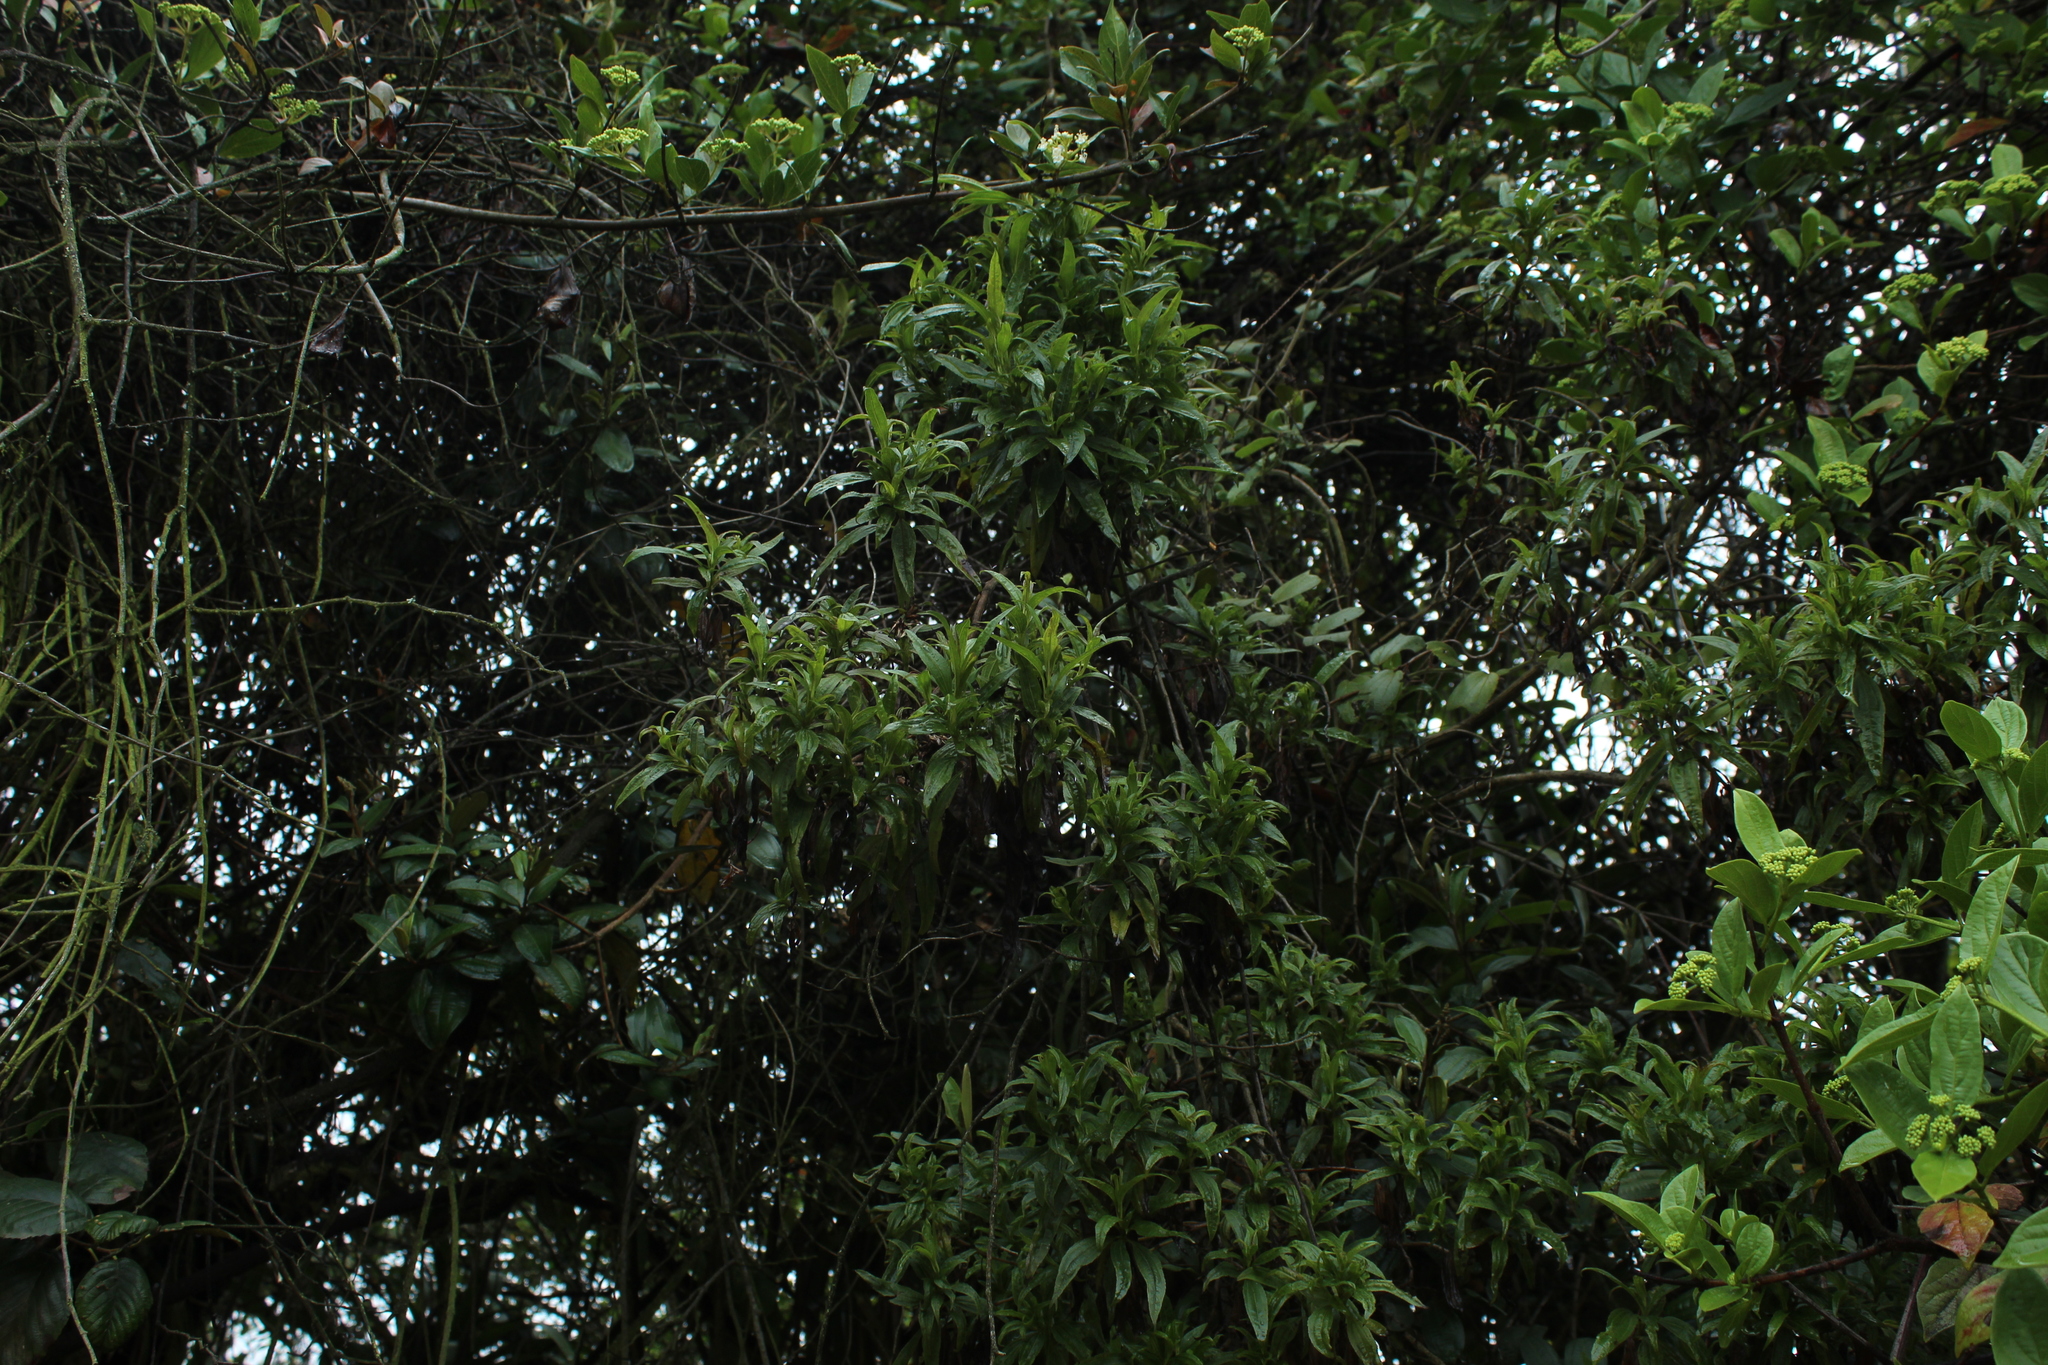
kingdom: Plantae
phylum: Tracheophyta
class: Magnoliopsida
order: Asterales
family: Asteraceae
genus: Chromolaena
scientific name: Chromolaena perglabra
